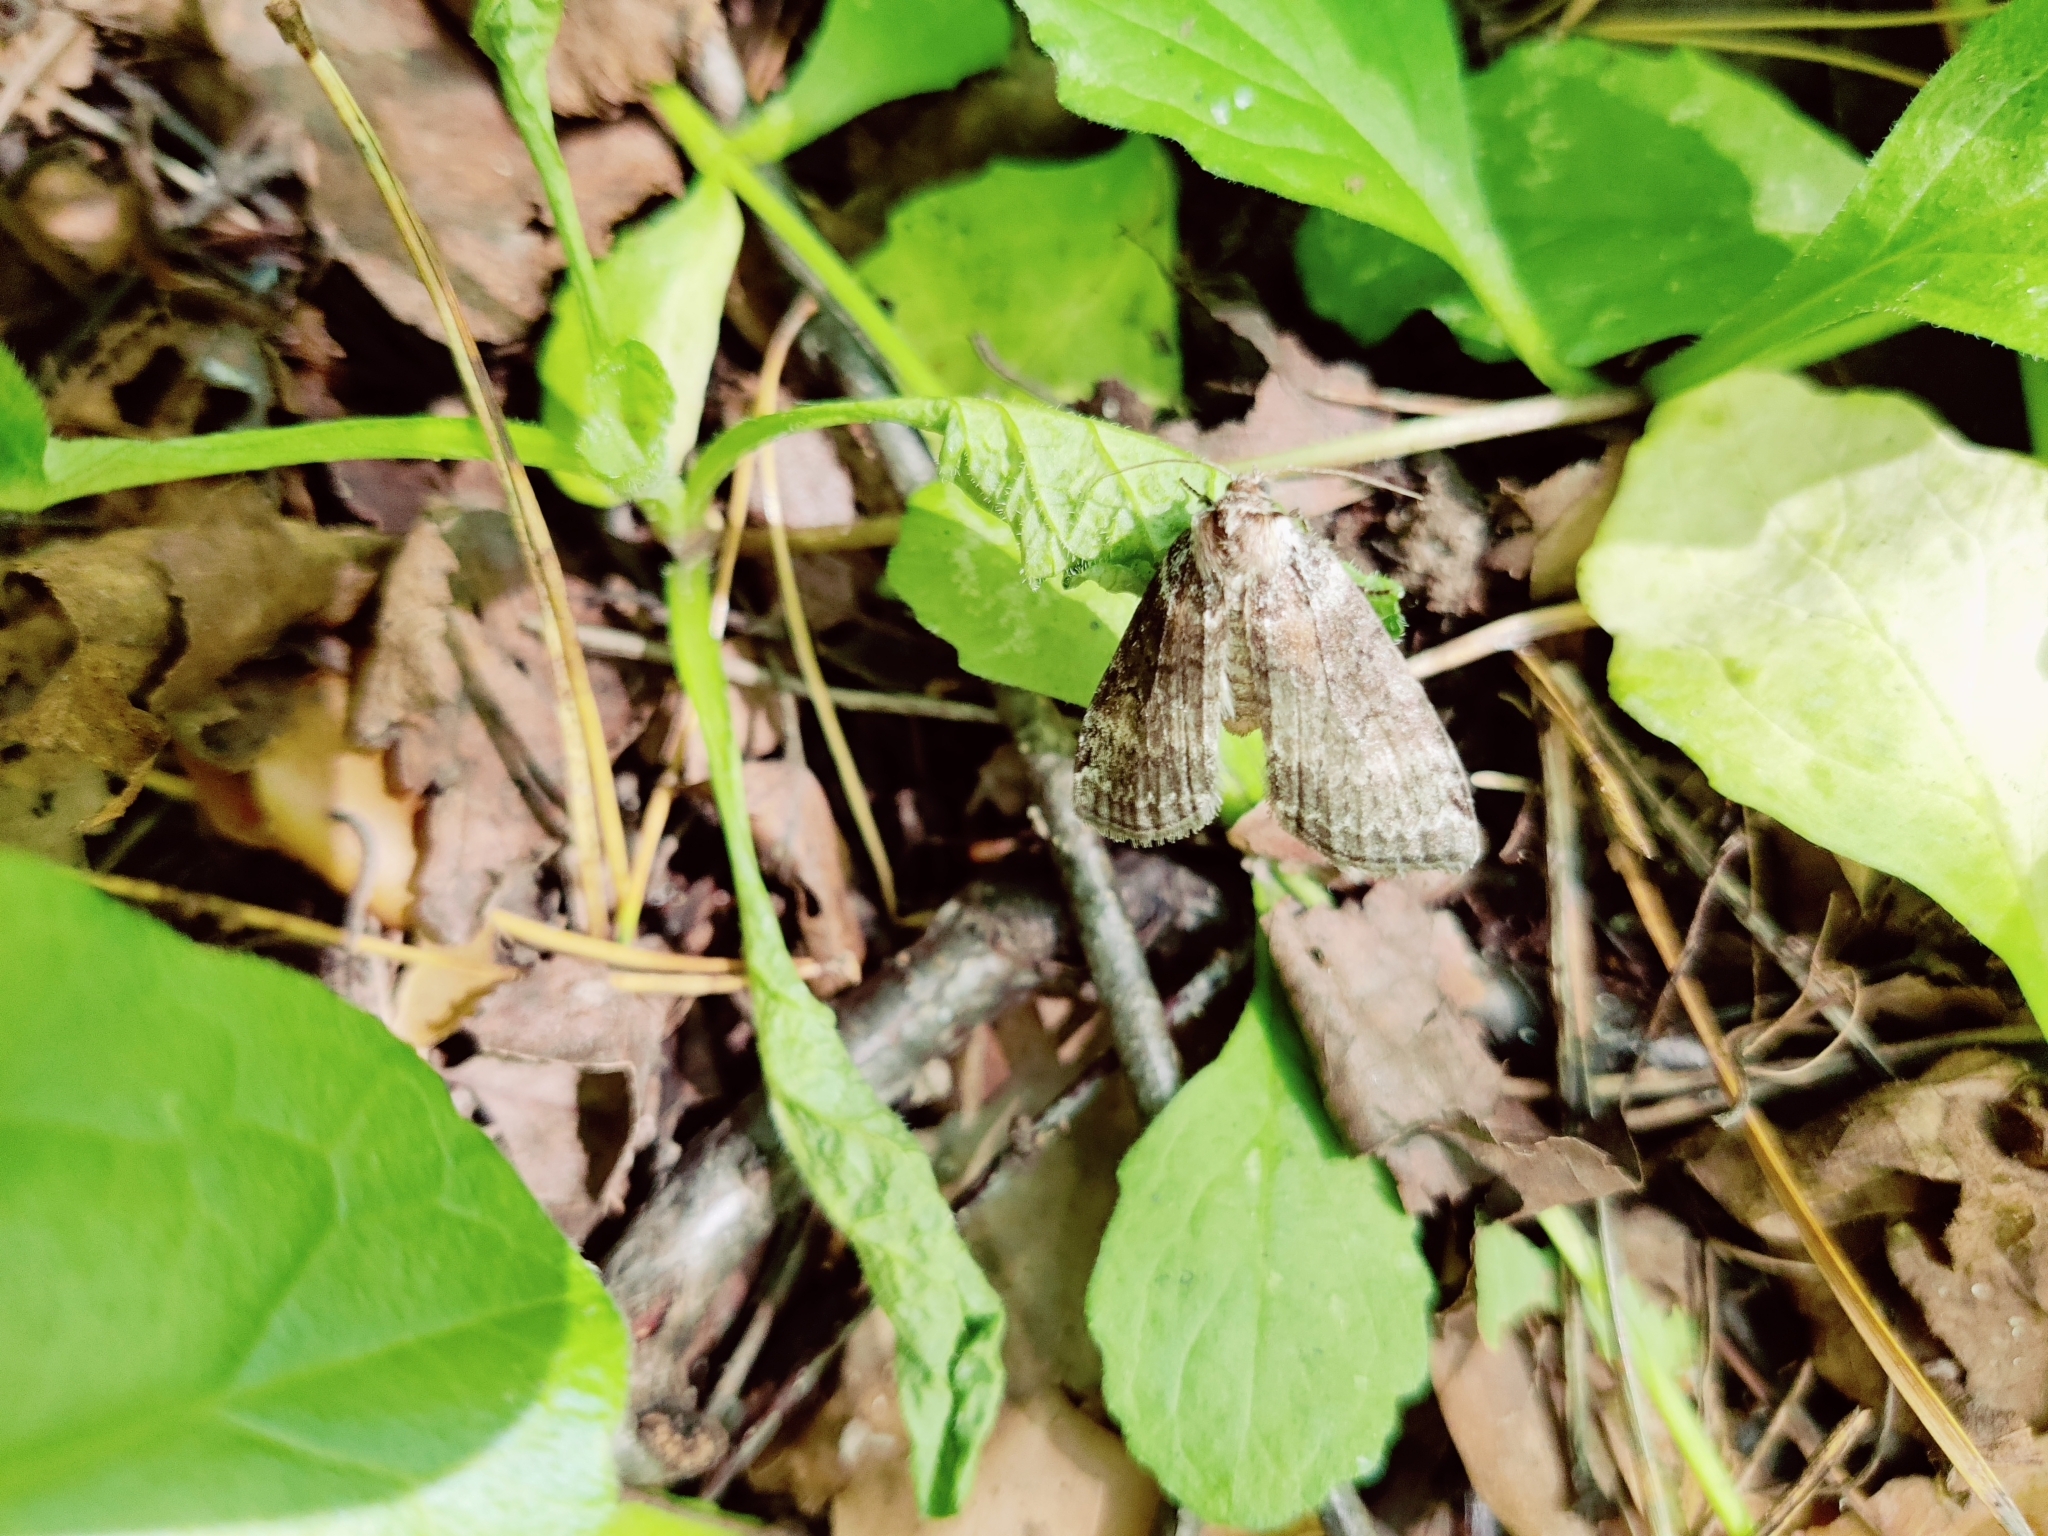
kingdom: Animalia
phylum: Arthropoda
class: Insecta
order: Lepidoptera
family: Drepanidae
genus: Tetheella
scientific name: Tetheella fluctuosa
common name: Satin lutestring
